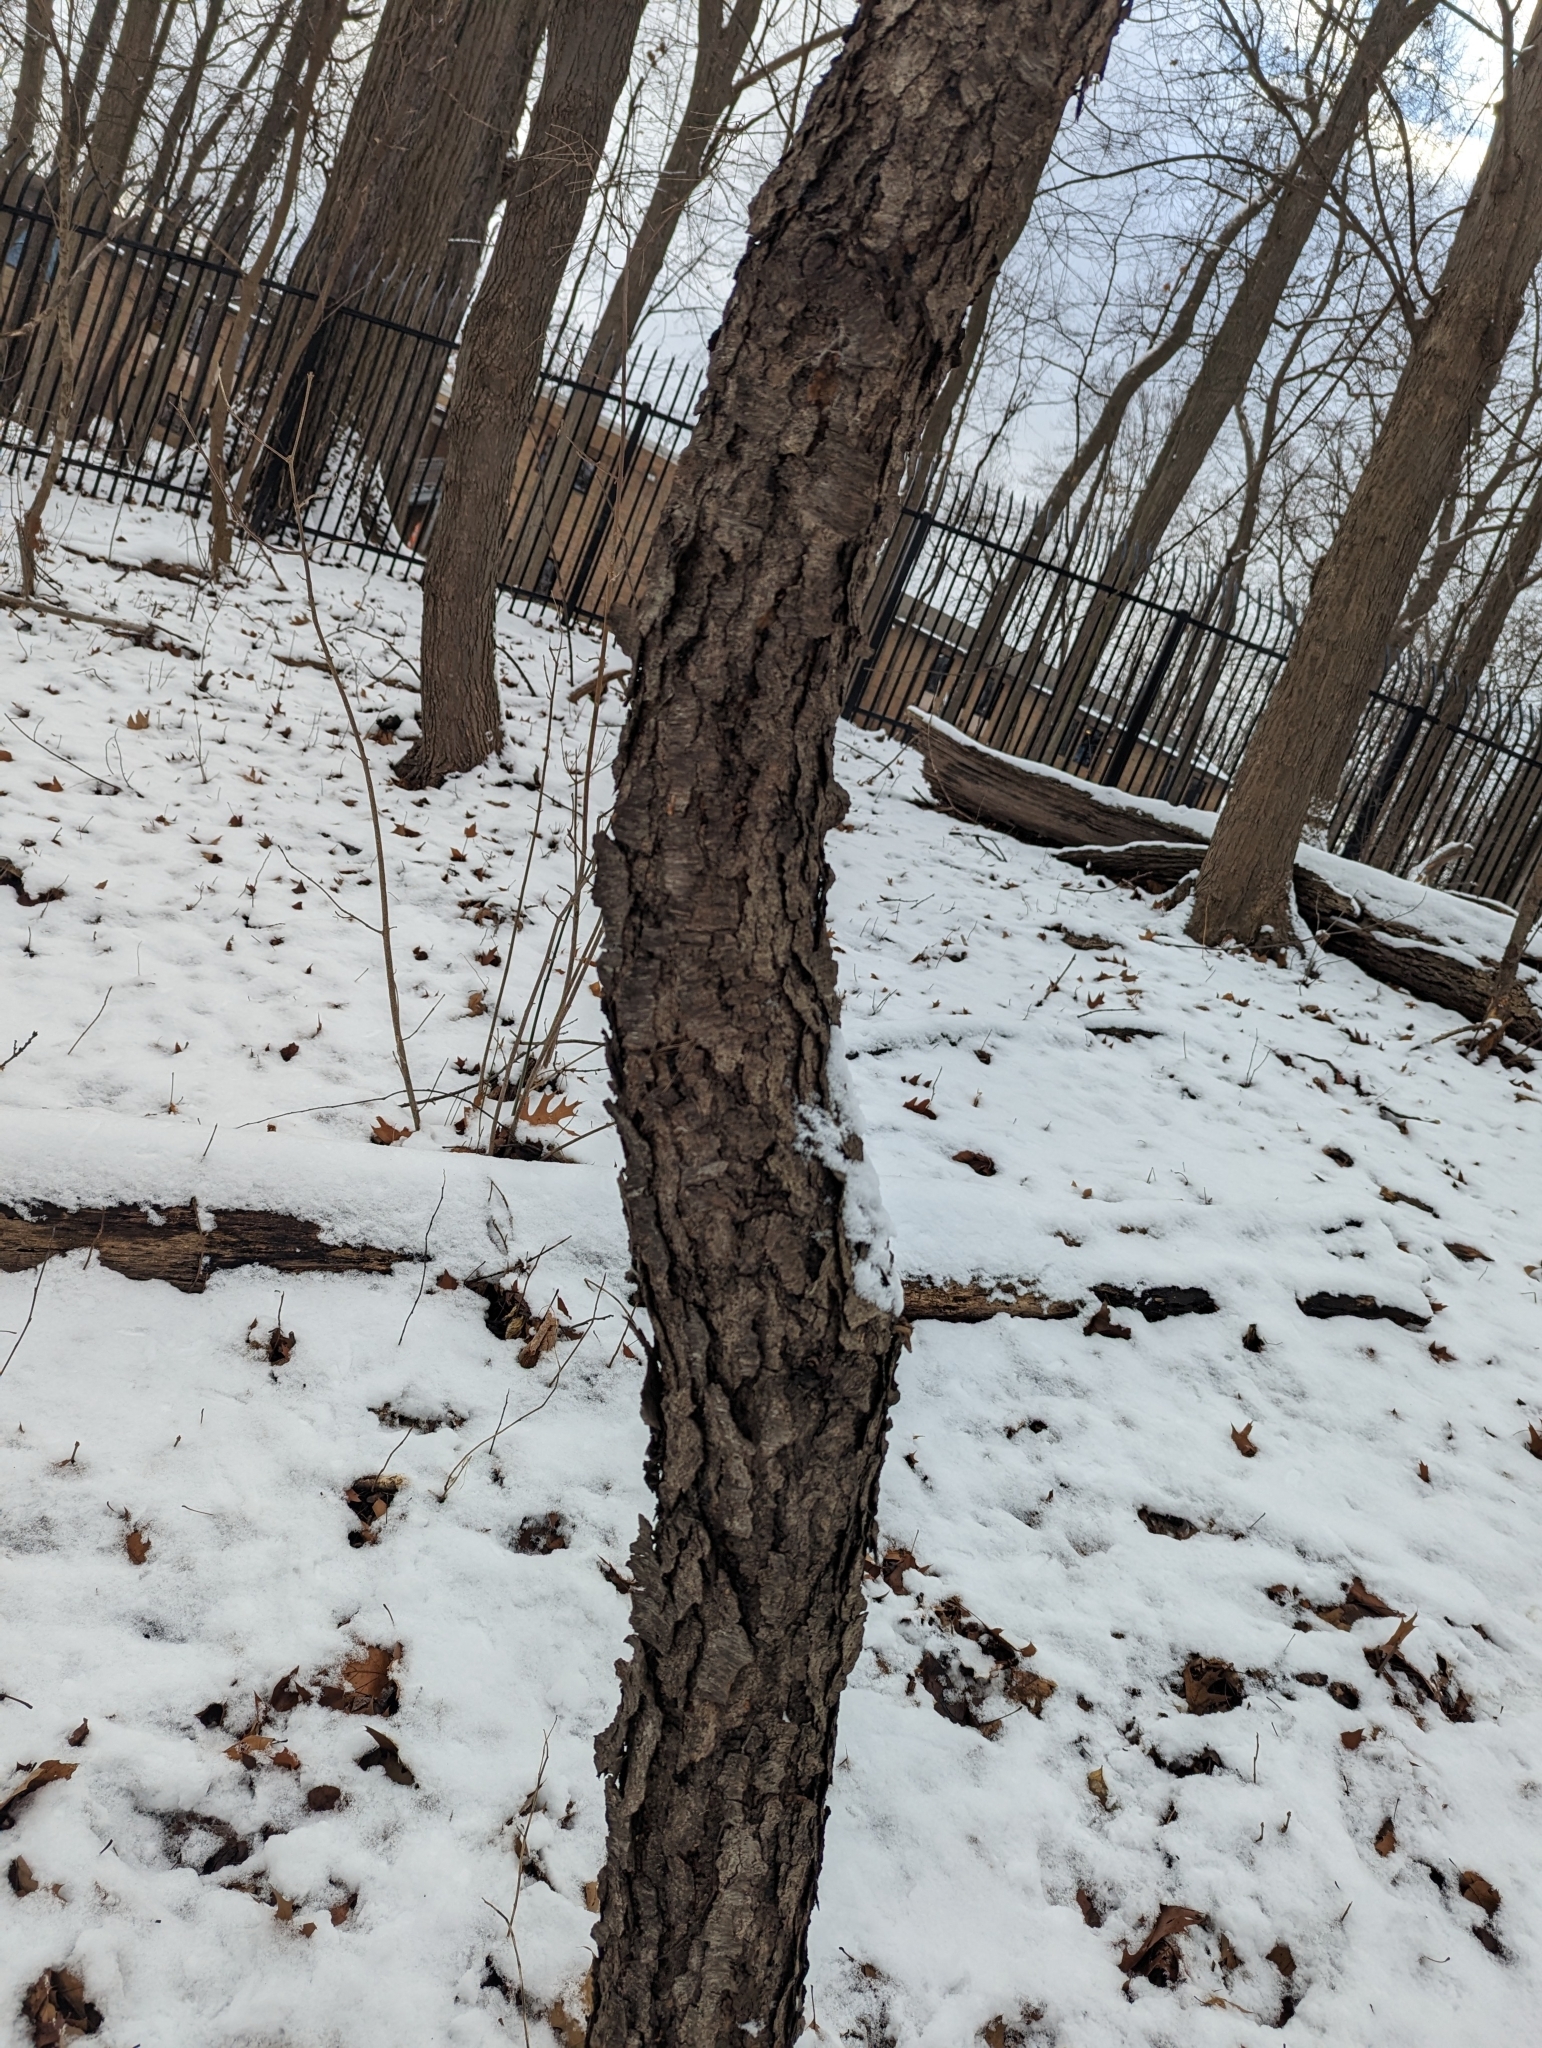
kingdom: Plantae
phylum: Tracheophyta
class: Magnoliopsida
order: Rosales
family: Rosaceae
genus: Prunus
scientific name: Prunus serotina
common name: Black cherry
